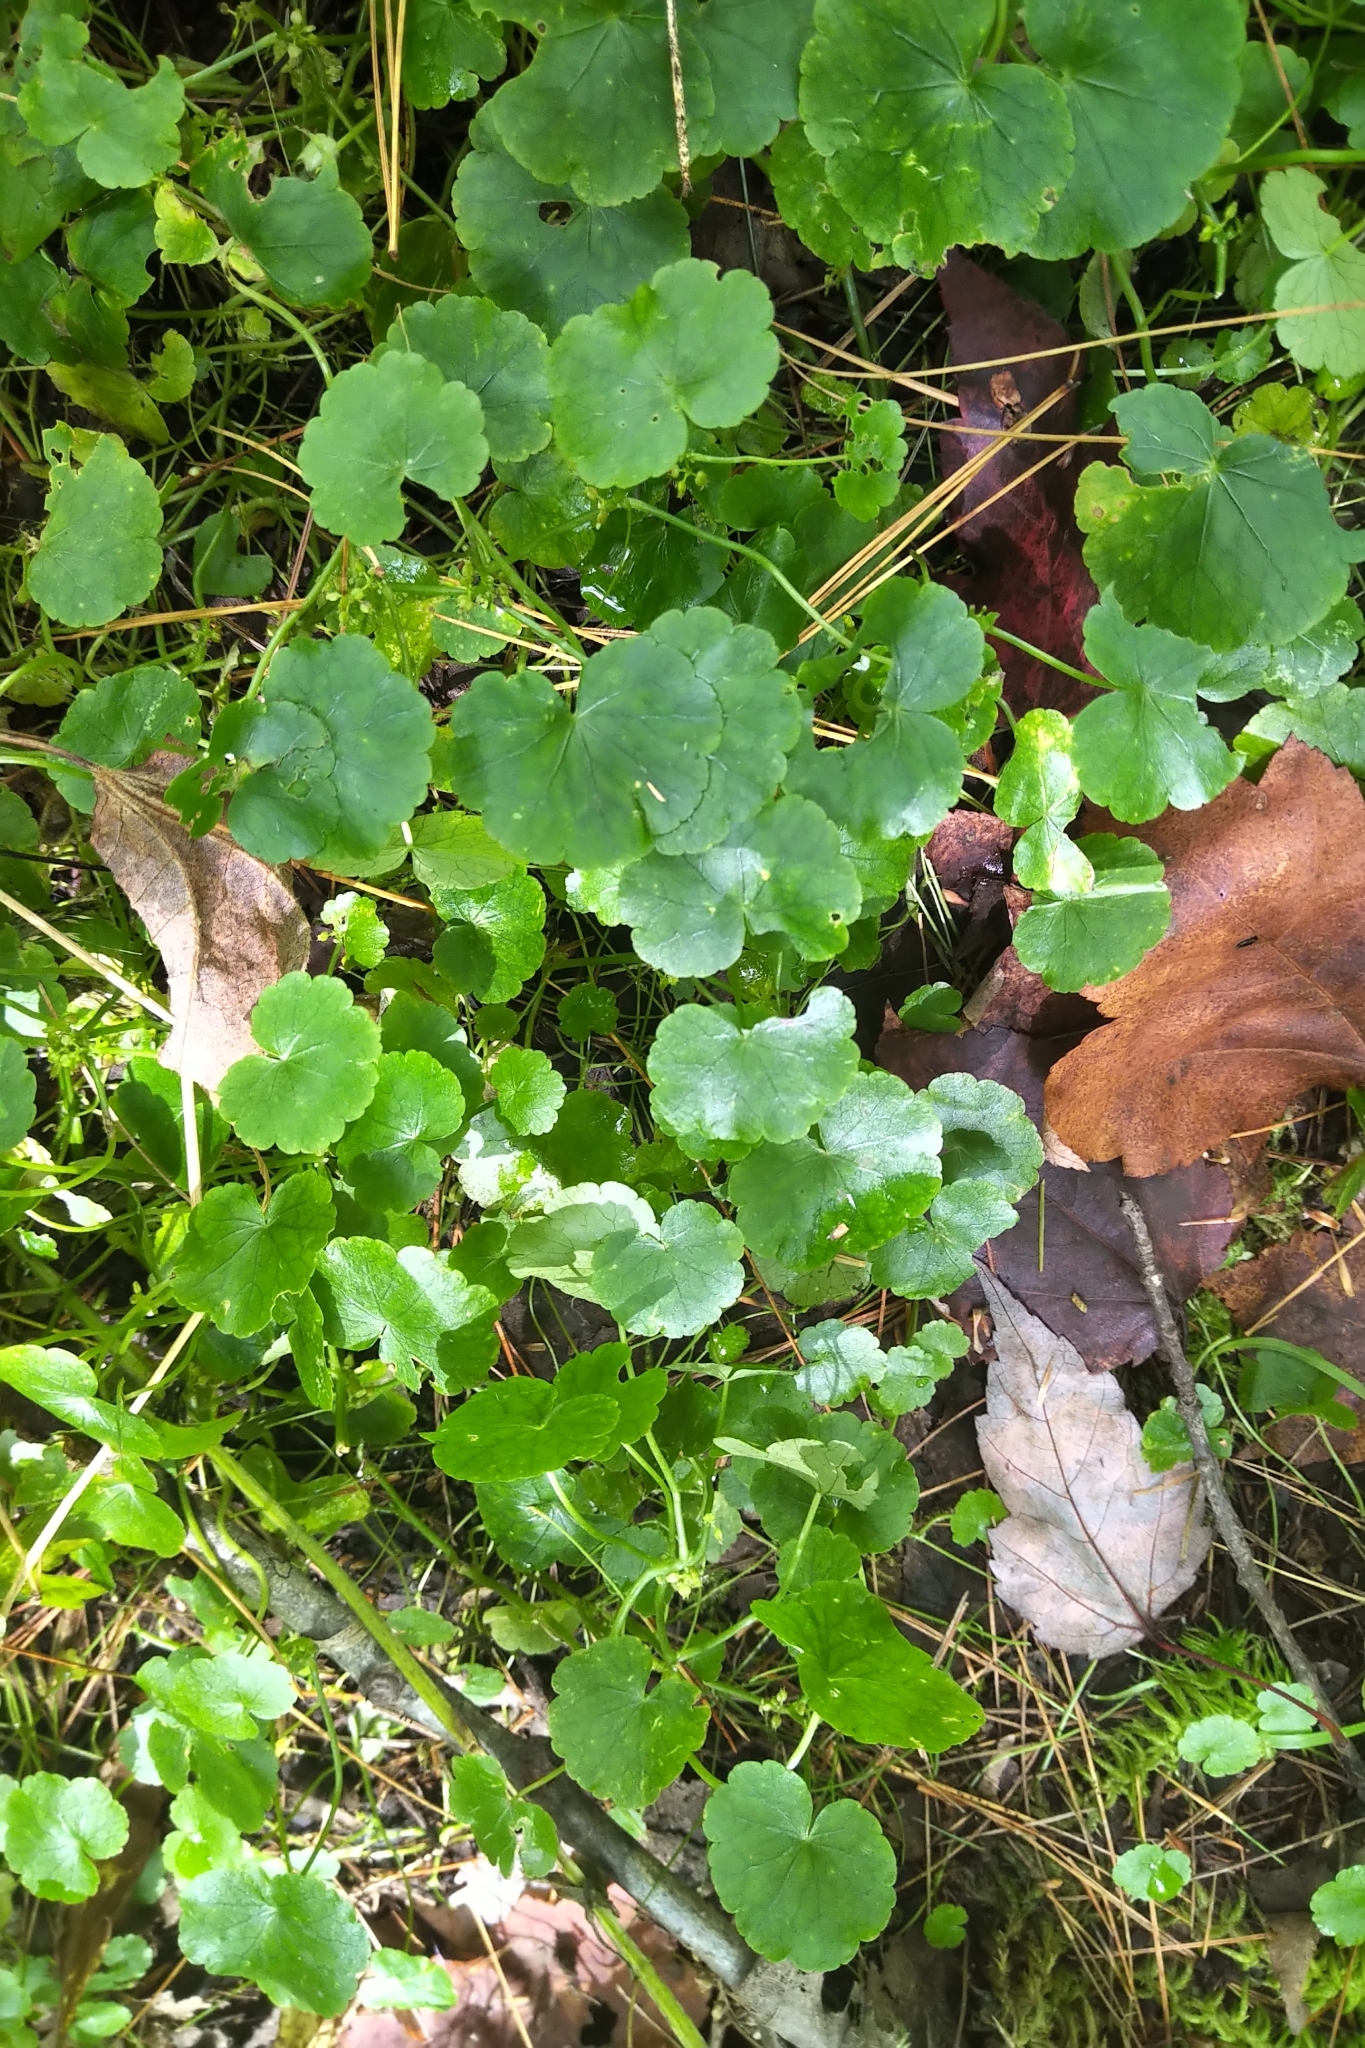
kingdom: Plantae
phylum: Tracheophyta
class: Magnoliopsida
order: Apiales
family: Araliaceae
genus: Hydrocotyle
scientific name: Hydrocotyle americana
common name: American water-pennywort
